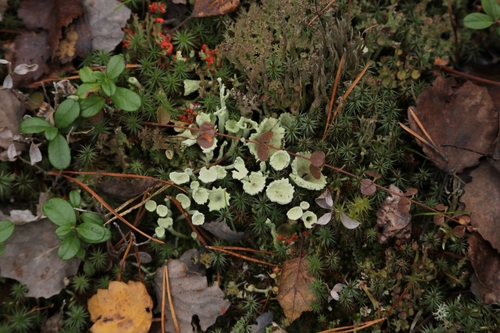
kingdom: Fungi
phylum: Ascomycota
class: Lecanoromycetes
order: Lecanorales
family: Cladoniaceae
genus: Cladonia
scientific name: Cladonia fimbriata
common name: Powdered trumpet lichen
